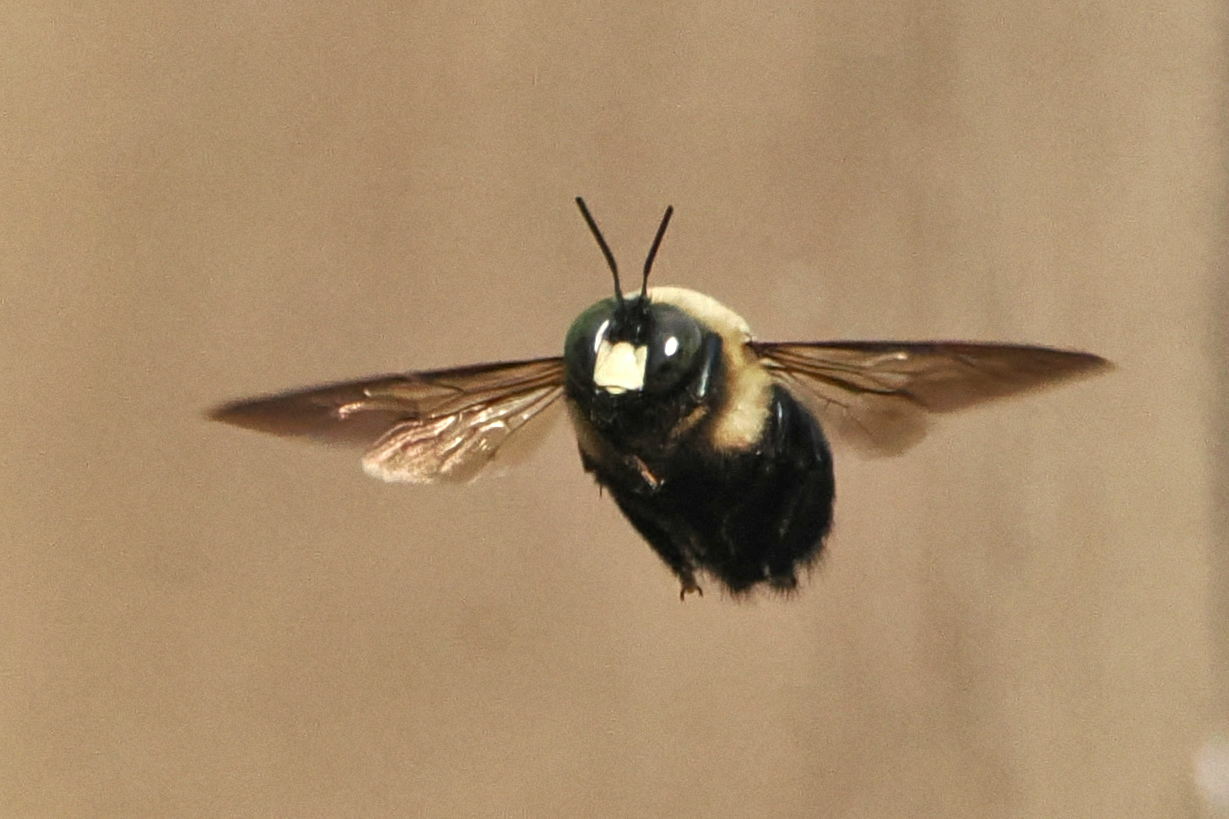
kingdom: Animalia
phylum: Arthropoda
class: Insecta
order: Hymenoptera
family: Apidae
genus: Xylocopa
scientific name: Xylocopa virginica
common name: Carpenter bee
